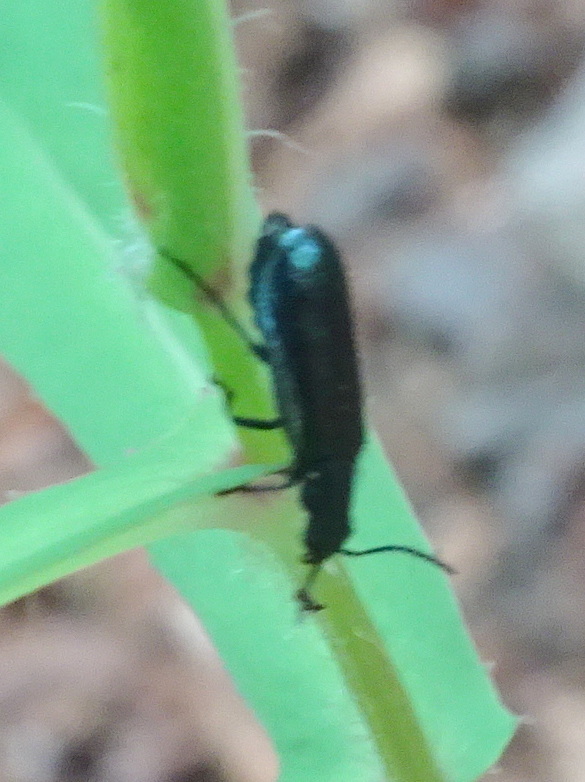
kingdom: Animalia
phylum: Arthropoda
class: Insecta
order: Coleoptera
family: Melyridae
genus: Dasytes
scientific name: Dasytes caeruleus
